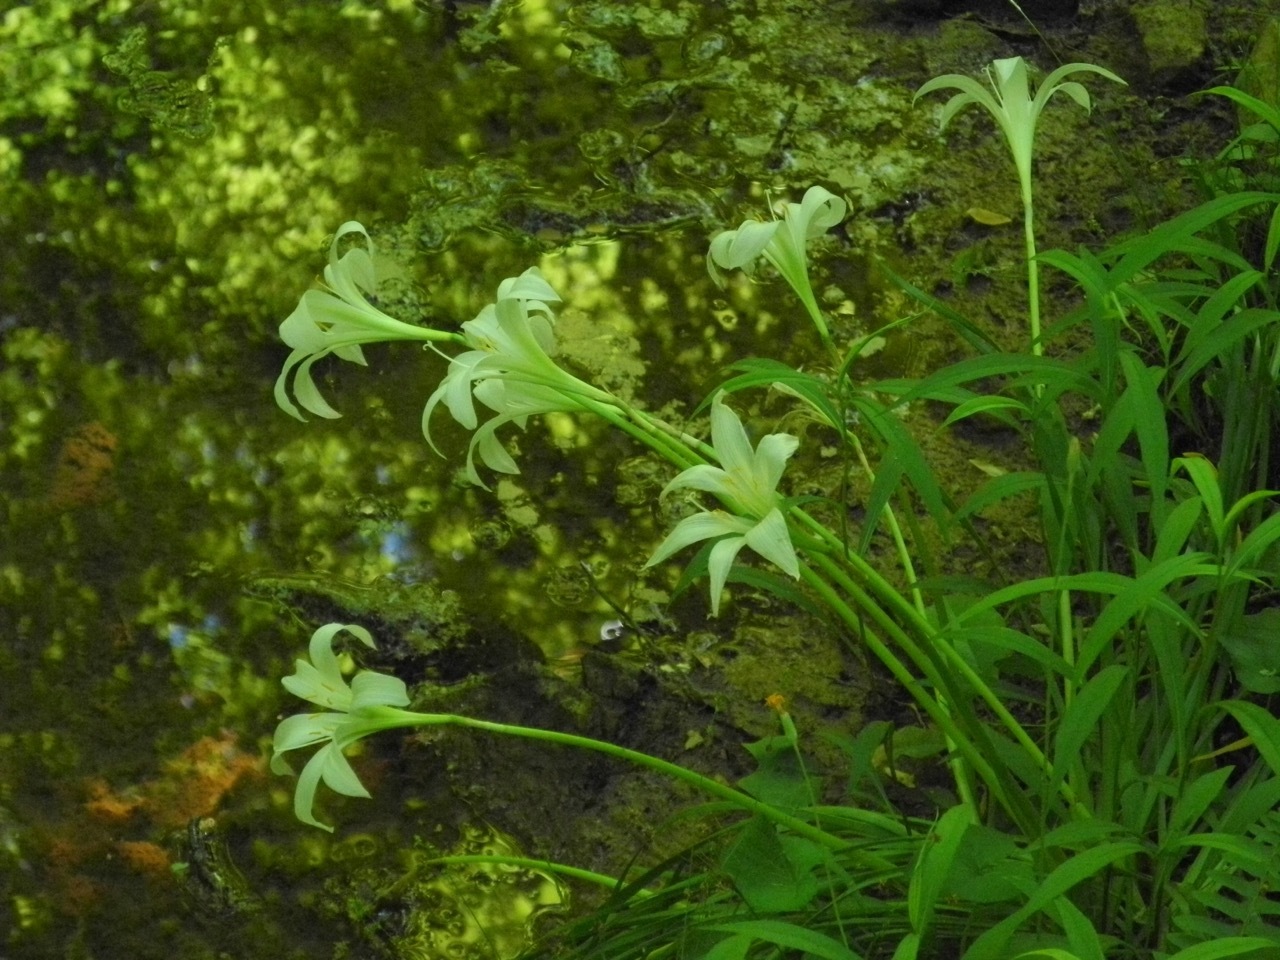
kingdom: Plantae
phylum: Tracheophyta
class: Liliopsida
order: Asparagales
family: Amaryllidaceae
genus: Zephyranthes
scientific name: Zephyranthes atamasco
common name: Atamasco lily
